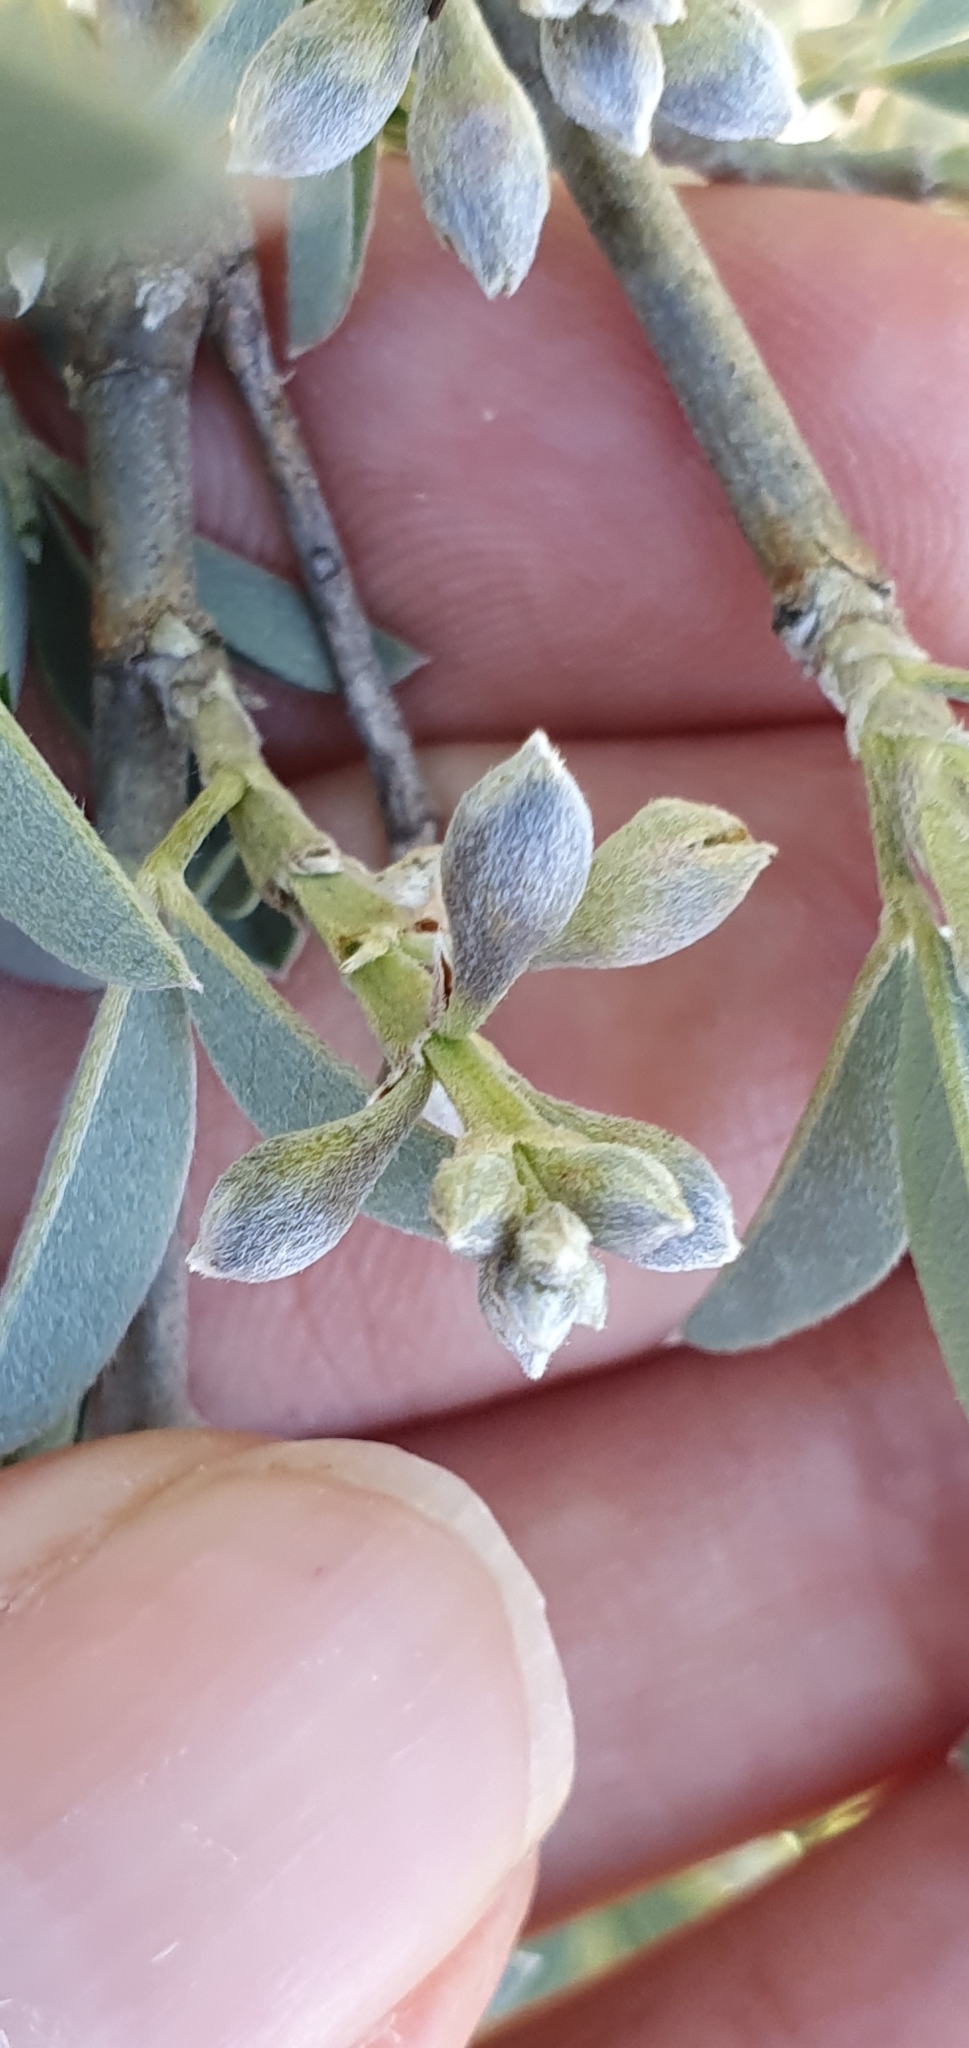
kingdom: Plantae
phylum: Tracheophyta
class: Magnoliopsida
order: Fabales
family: Fabaceae
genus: Anagyris
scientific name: Anagyris foetida
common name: Stinking bean trefoil
